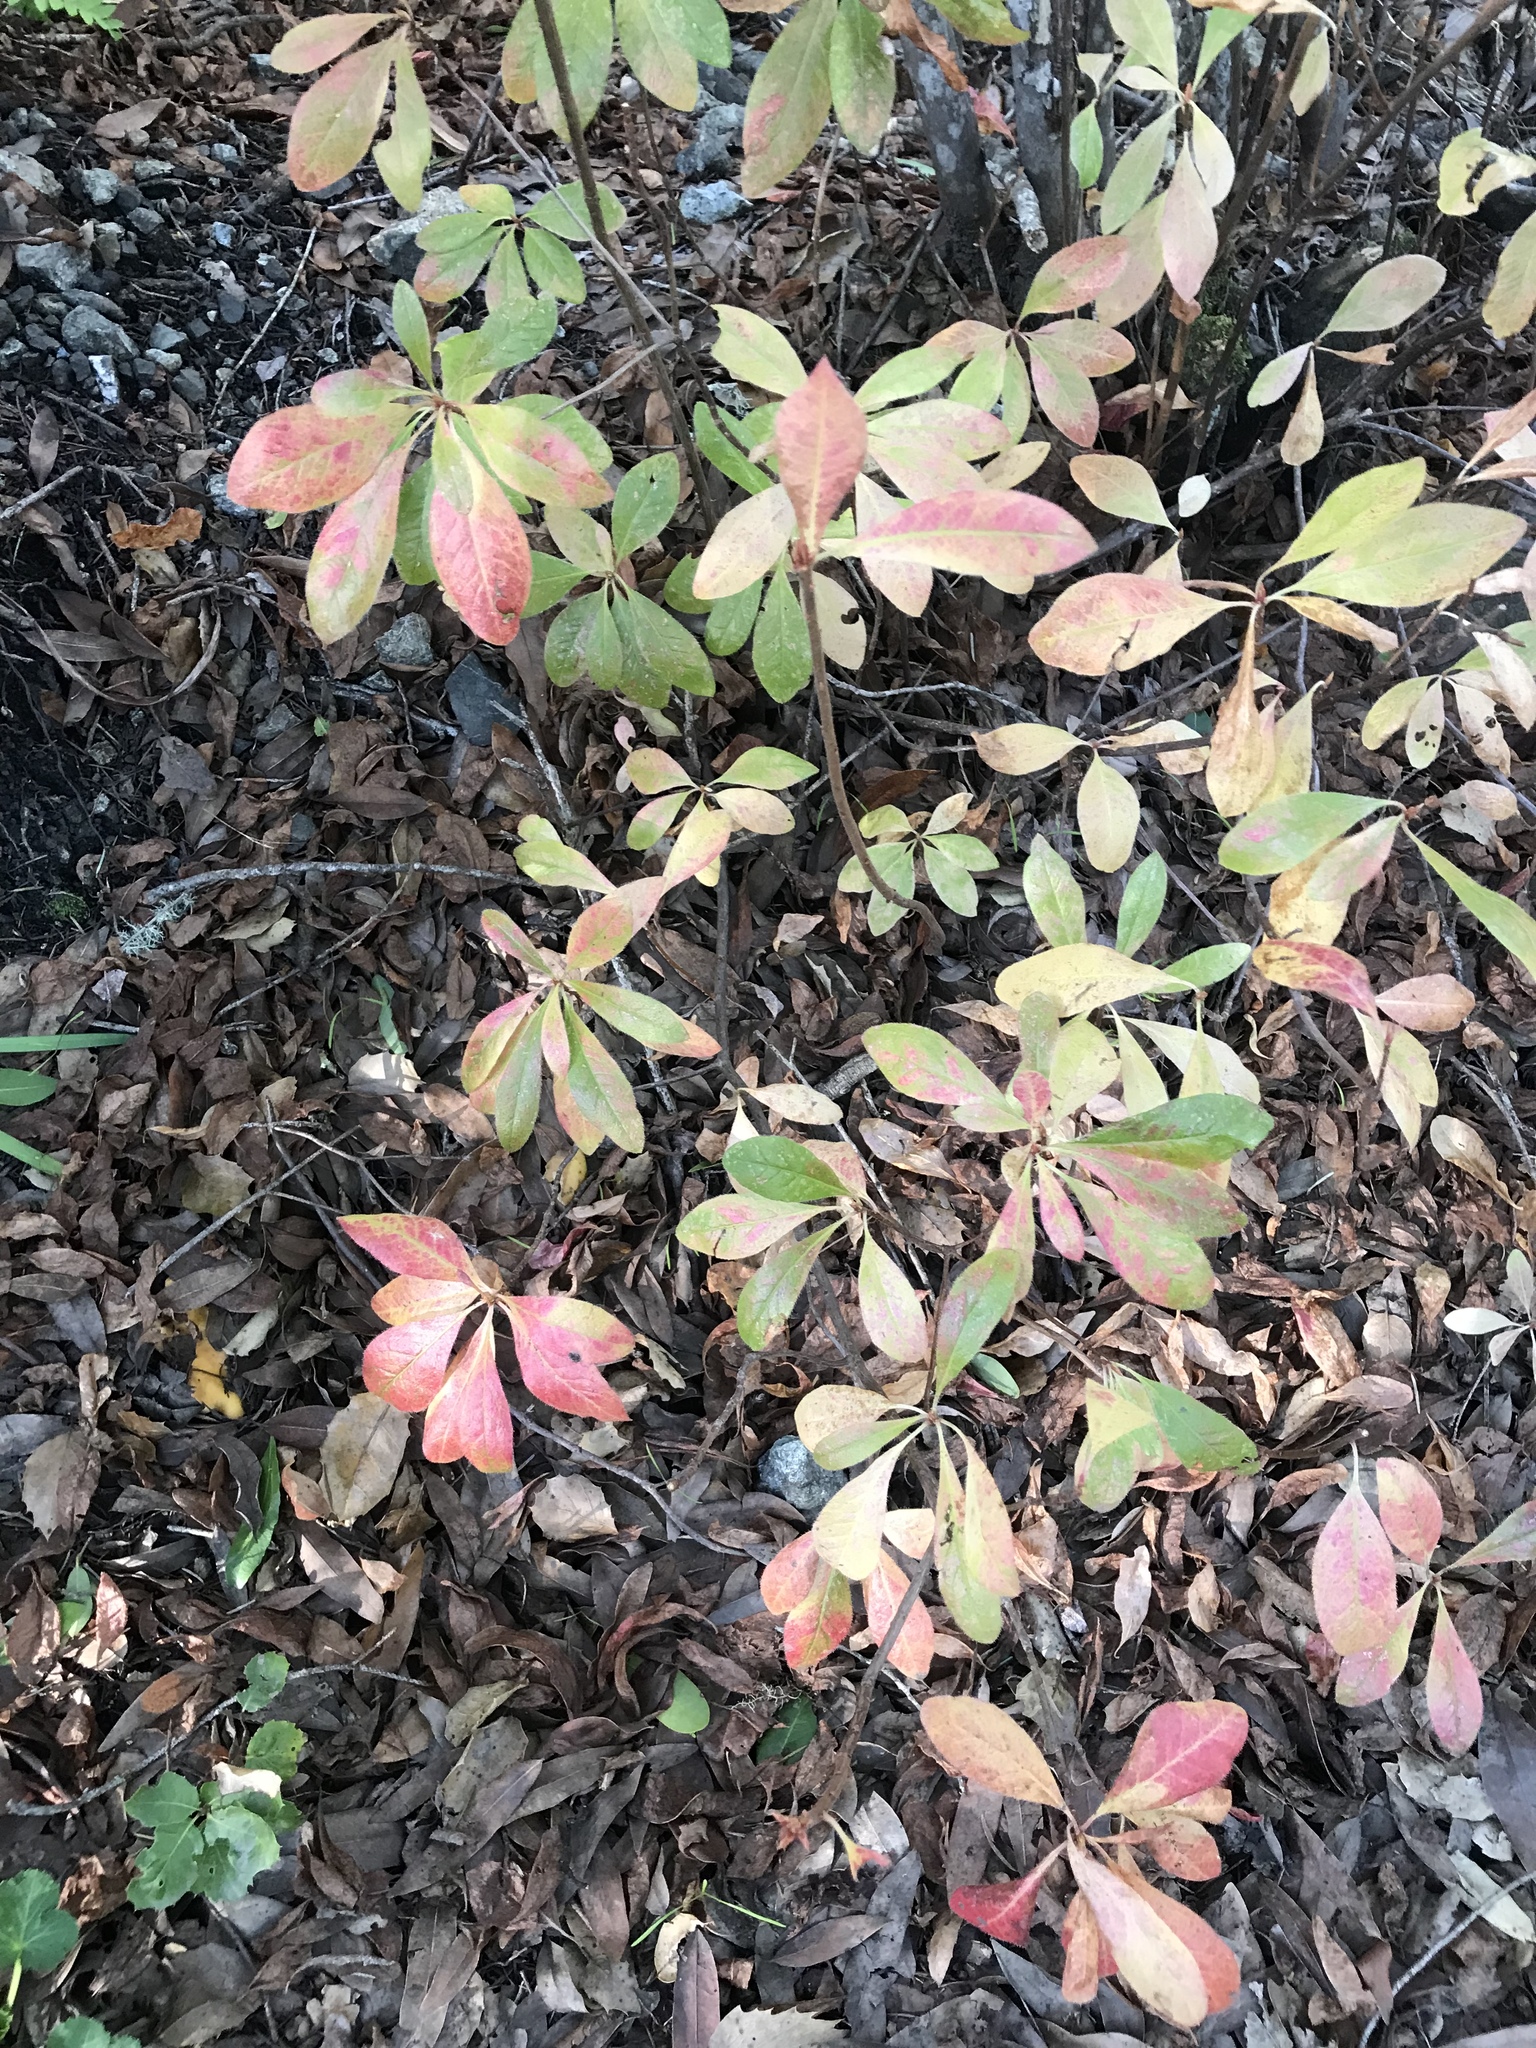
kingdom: Plantae
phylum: Tracheophyta
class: Magnoliopsida
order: Ericales
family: Ericaceae
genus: Rhododendron
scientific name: Rhododendron occidentale
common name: Western azalea
